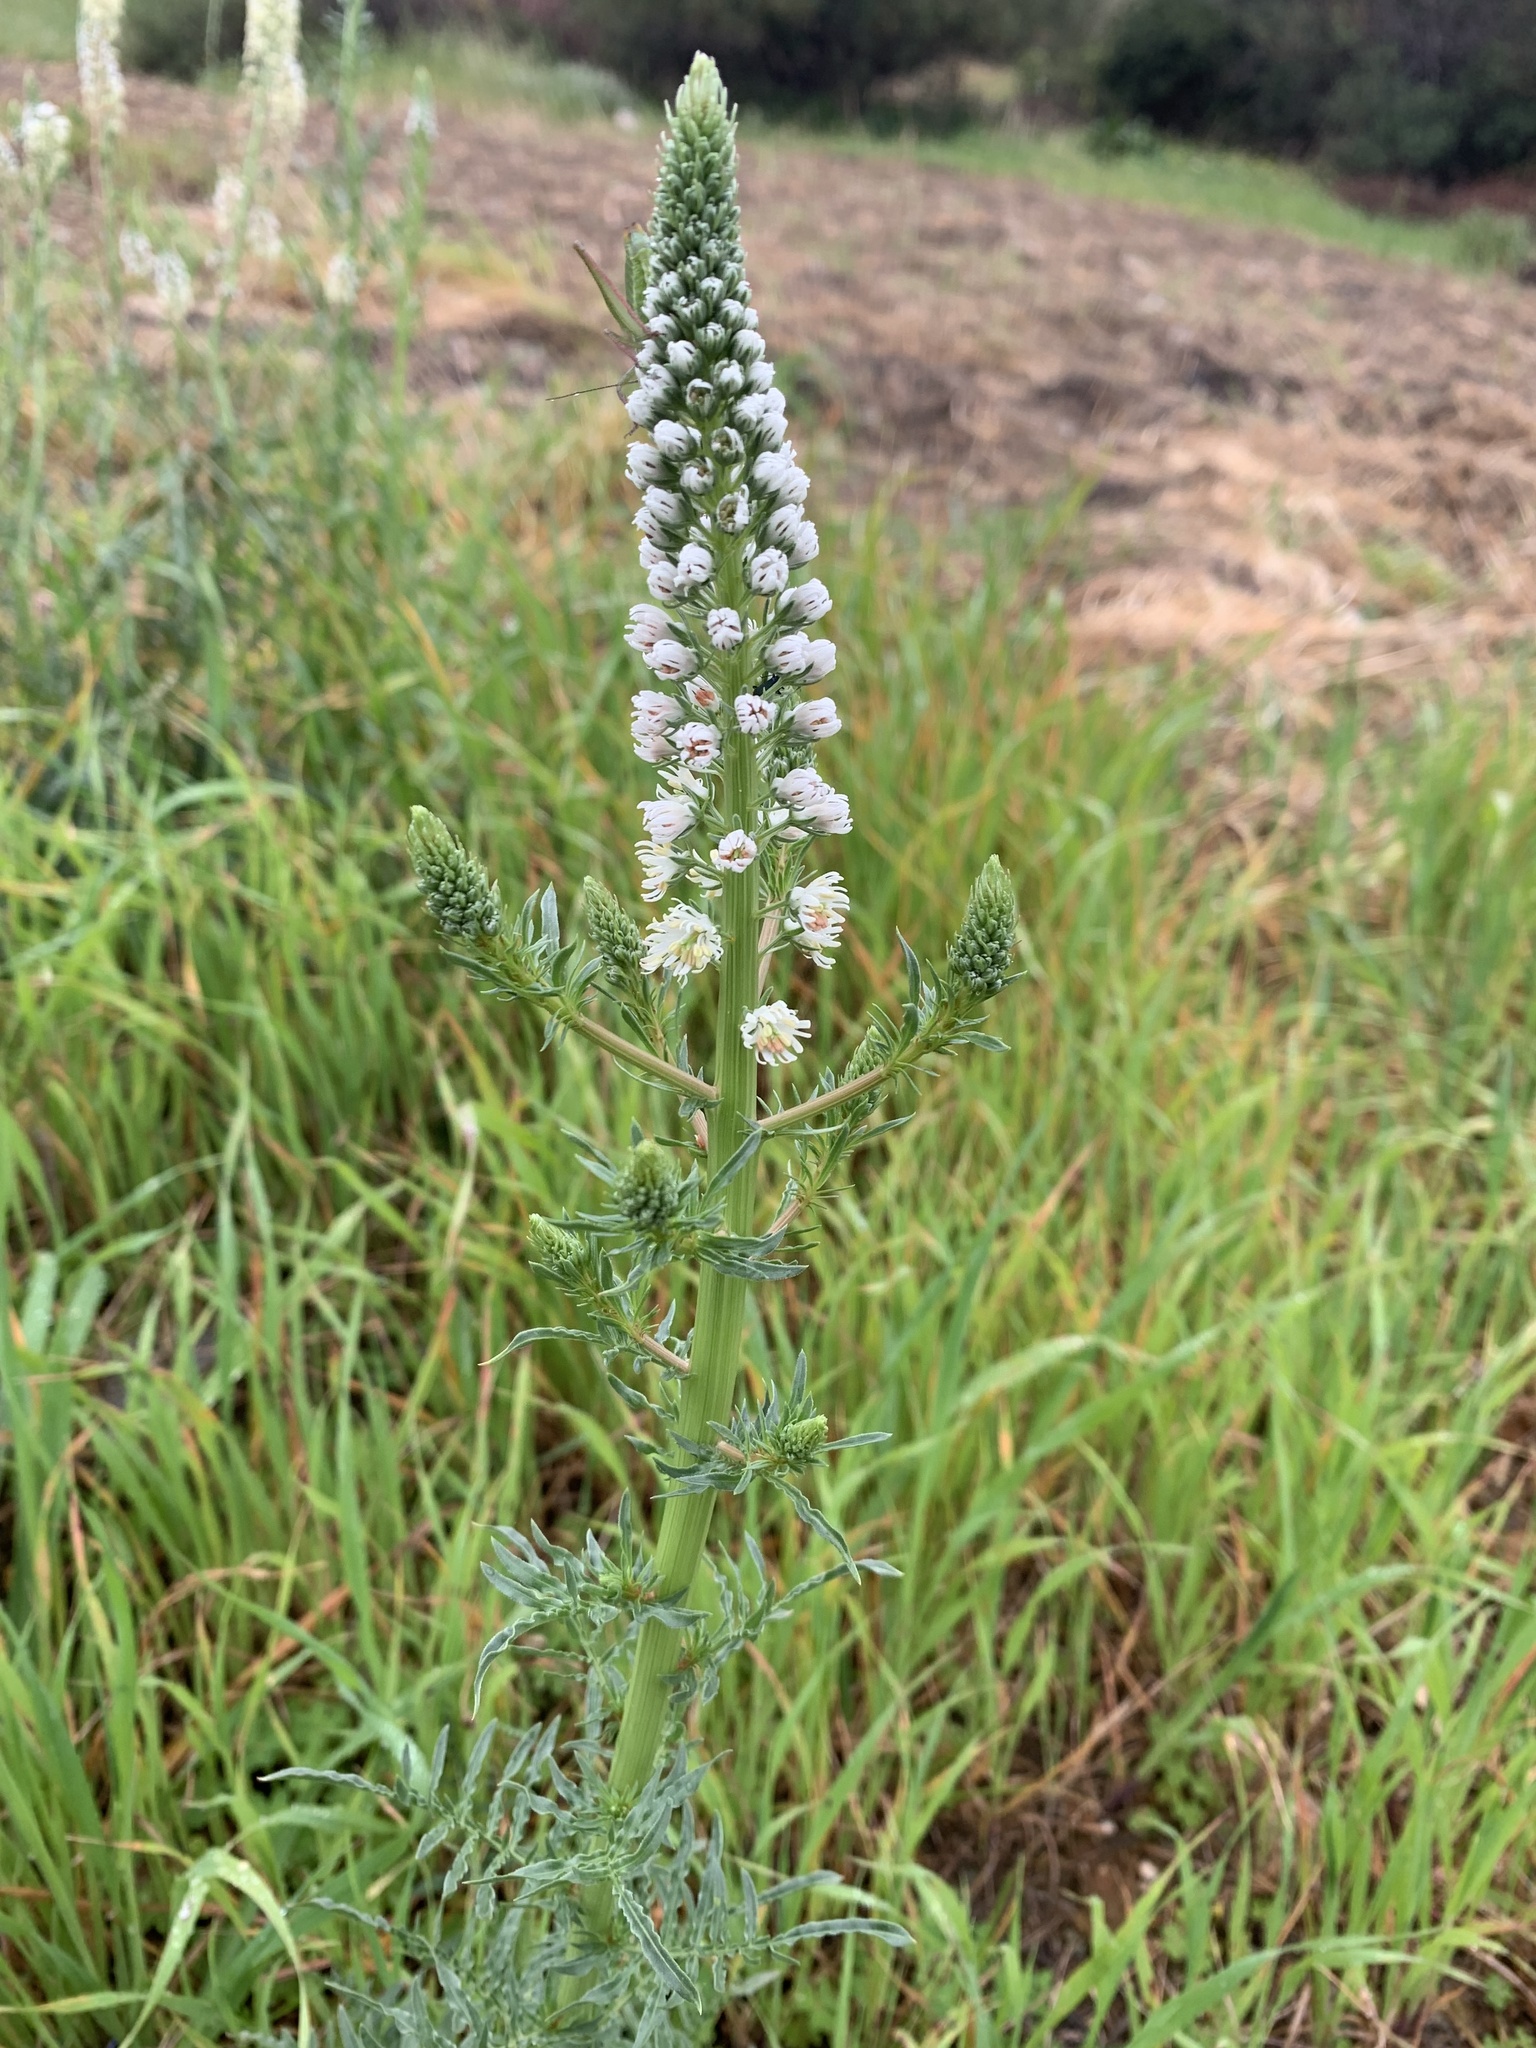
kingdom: Plantae
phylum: Tracheophyta
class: Magnoliopsida
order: Brassicales
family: Resedaceae
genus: Reseda
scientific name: Reseda alba
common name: White mignonette
